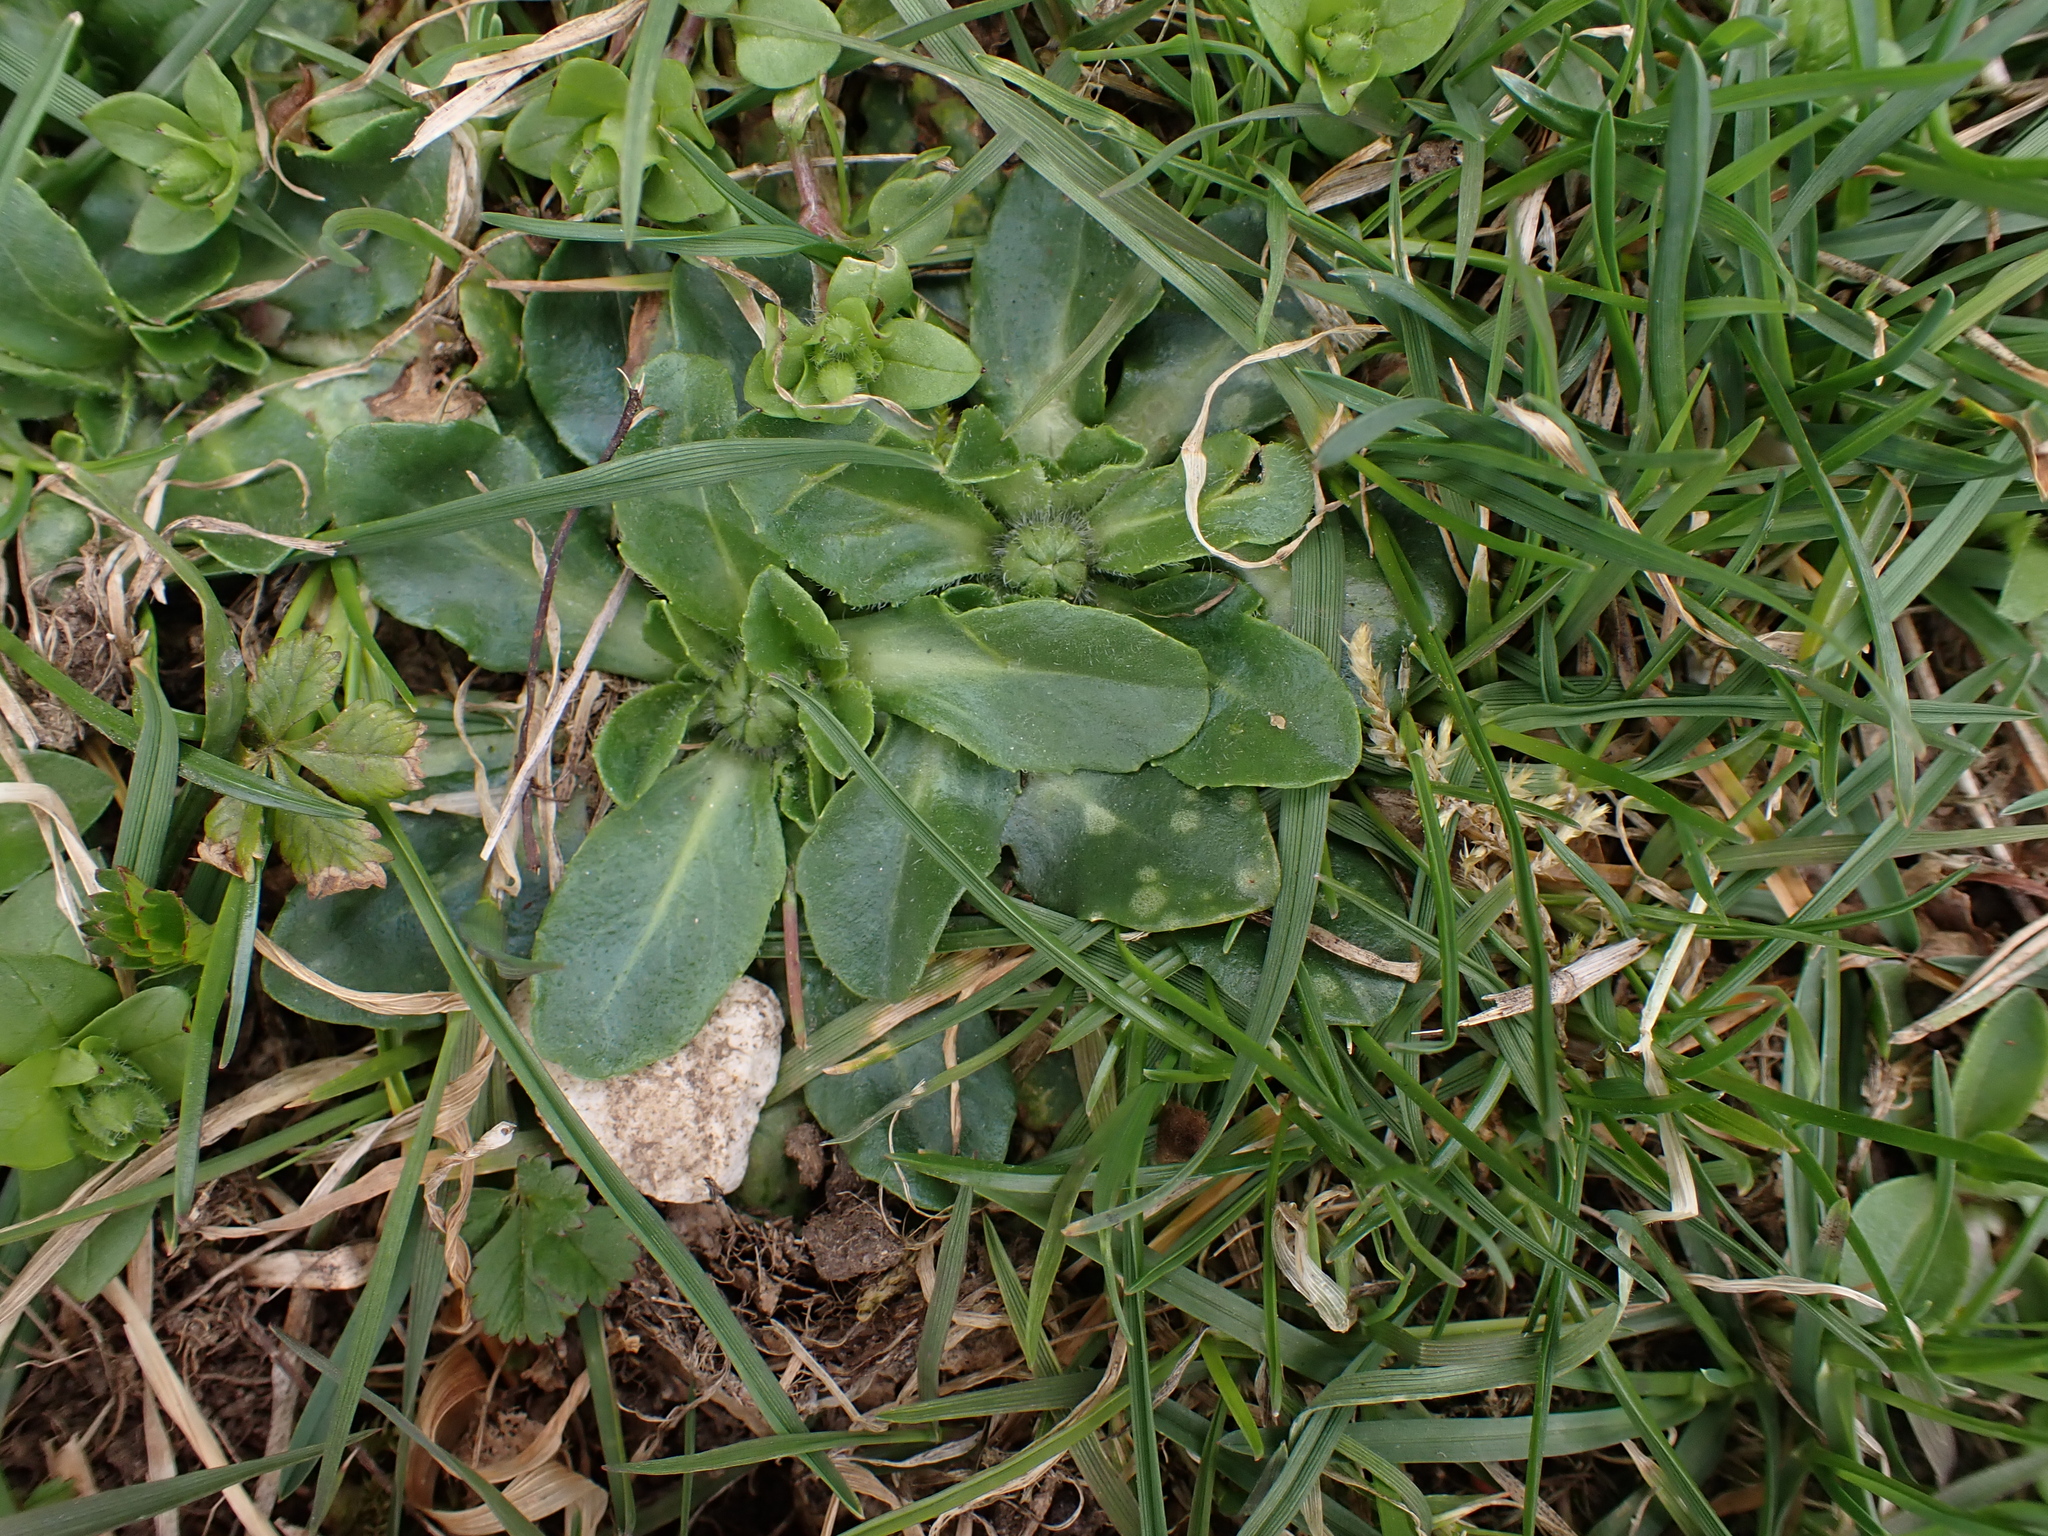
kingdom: Fungi
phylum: Basidiomycota
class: Exobasidiomycetes
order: Entylomatales
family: Entylomataceae
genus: Entyloma
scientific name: Entyloma bellidis
